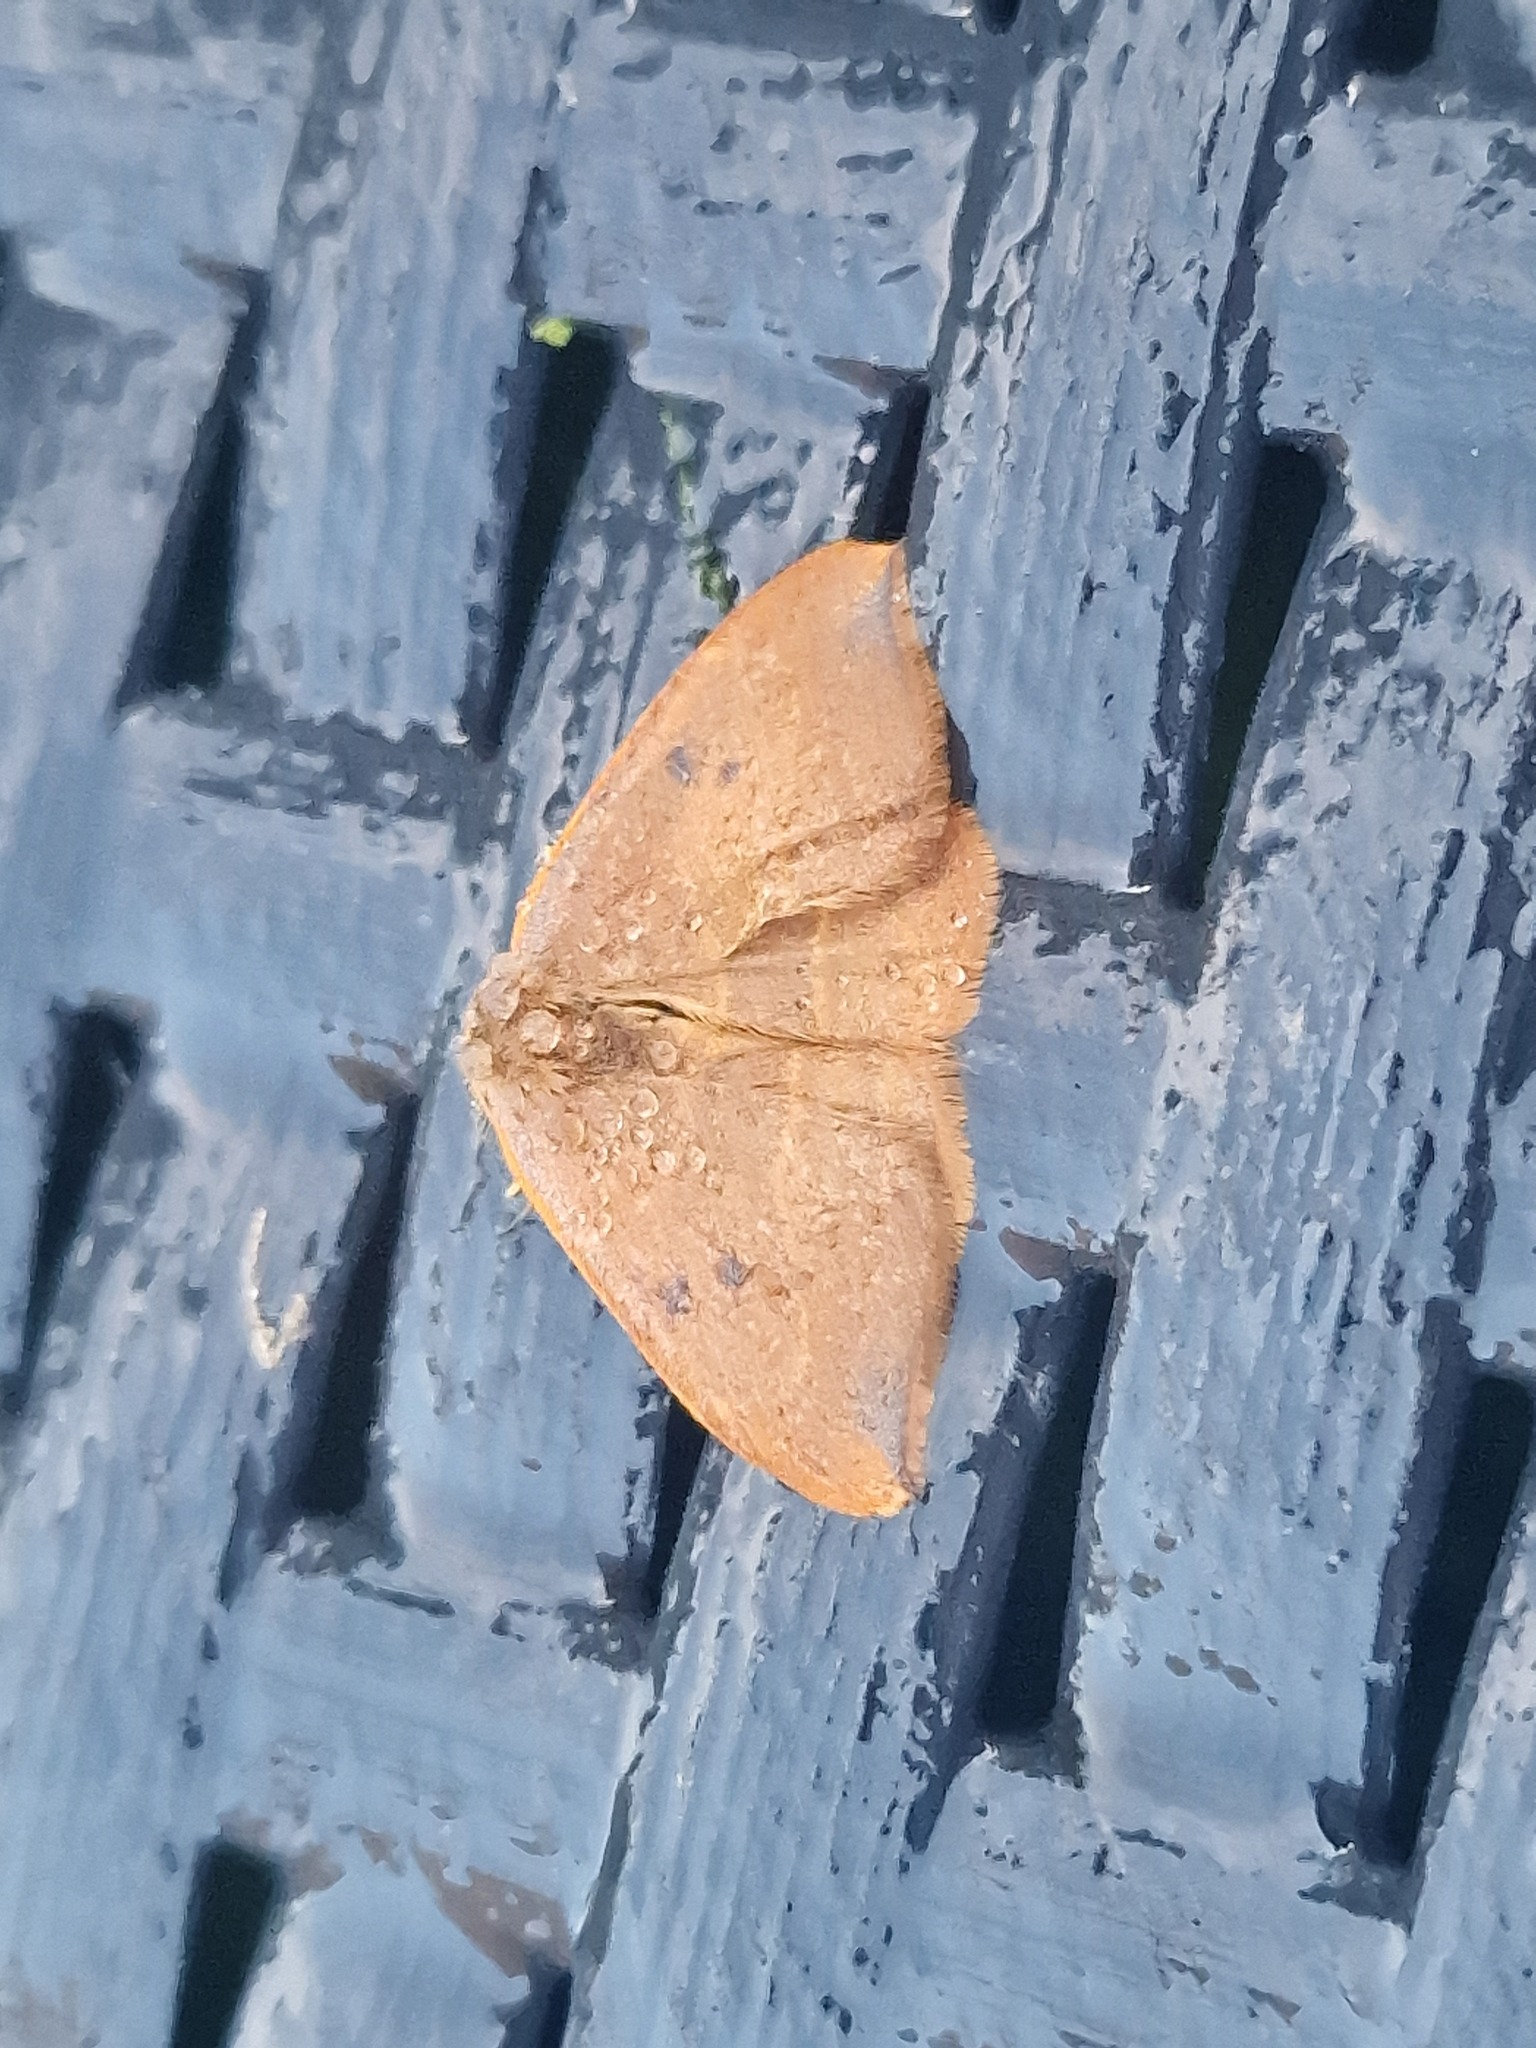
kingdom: Animalia
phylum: Arthropoda
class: Insecta
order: Lepidoptera
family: Drepanidae
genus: Watsonalla
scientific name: Watsonalla binaria
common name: Oak hook-tip
